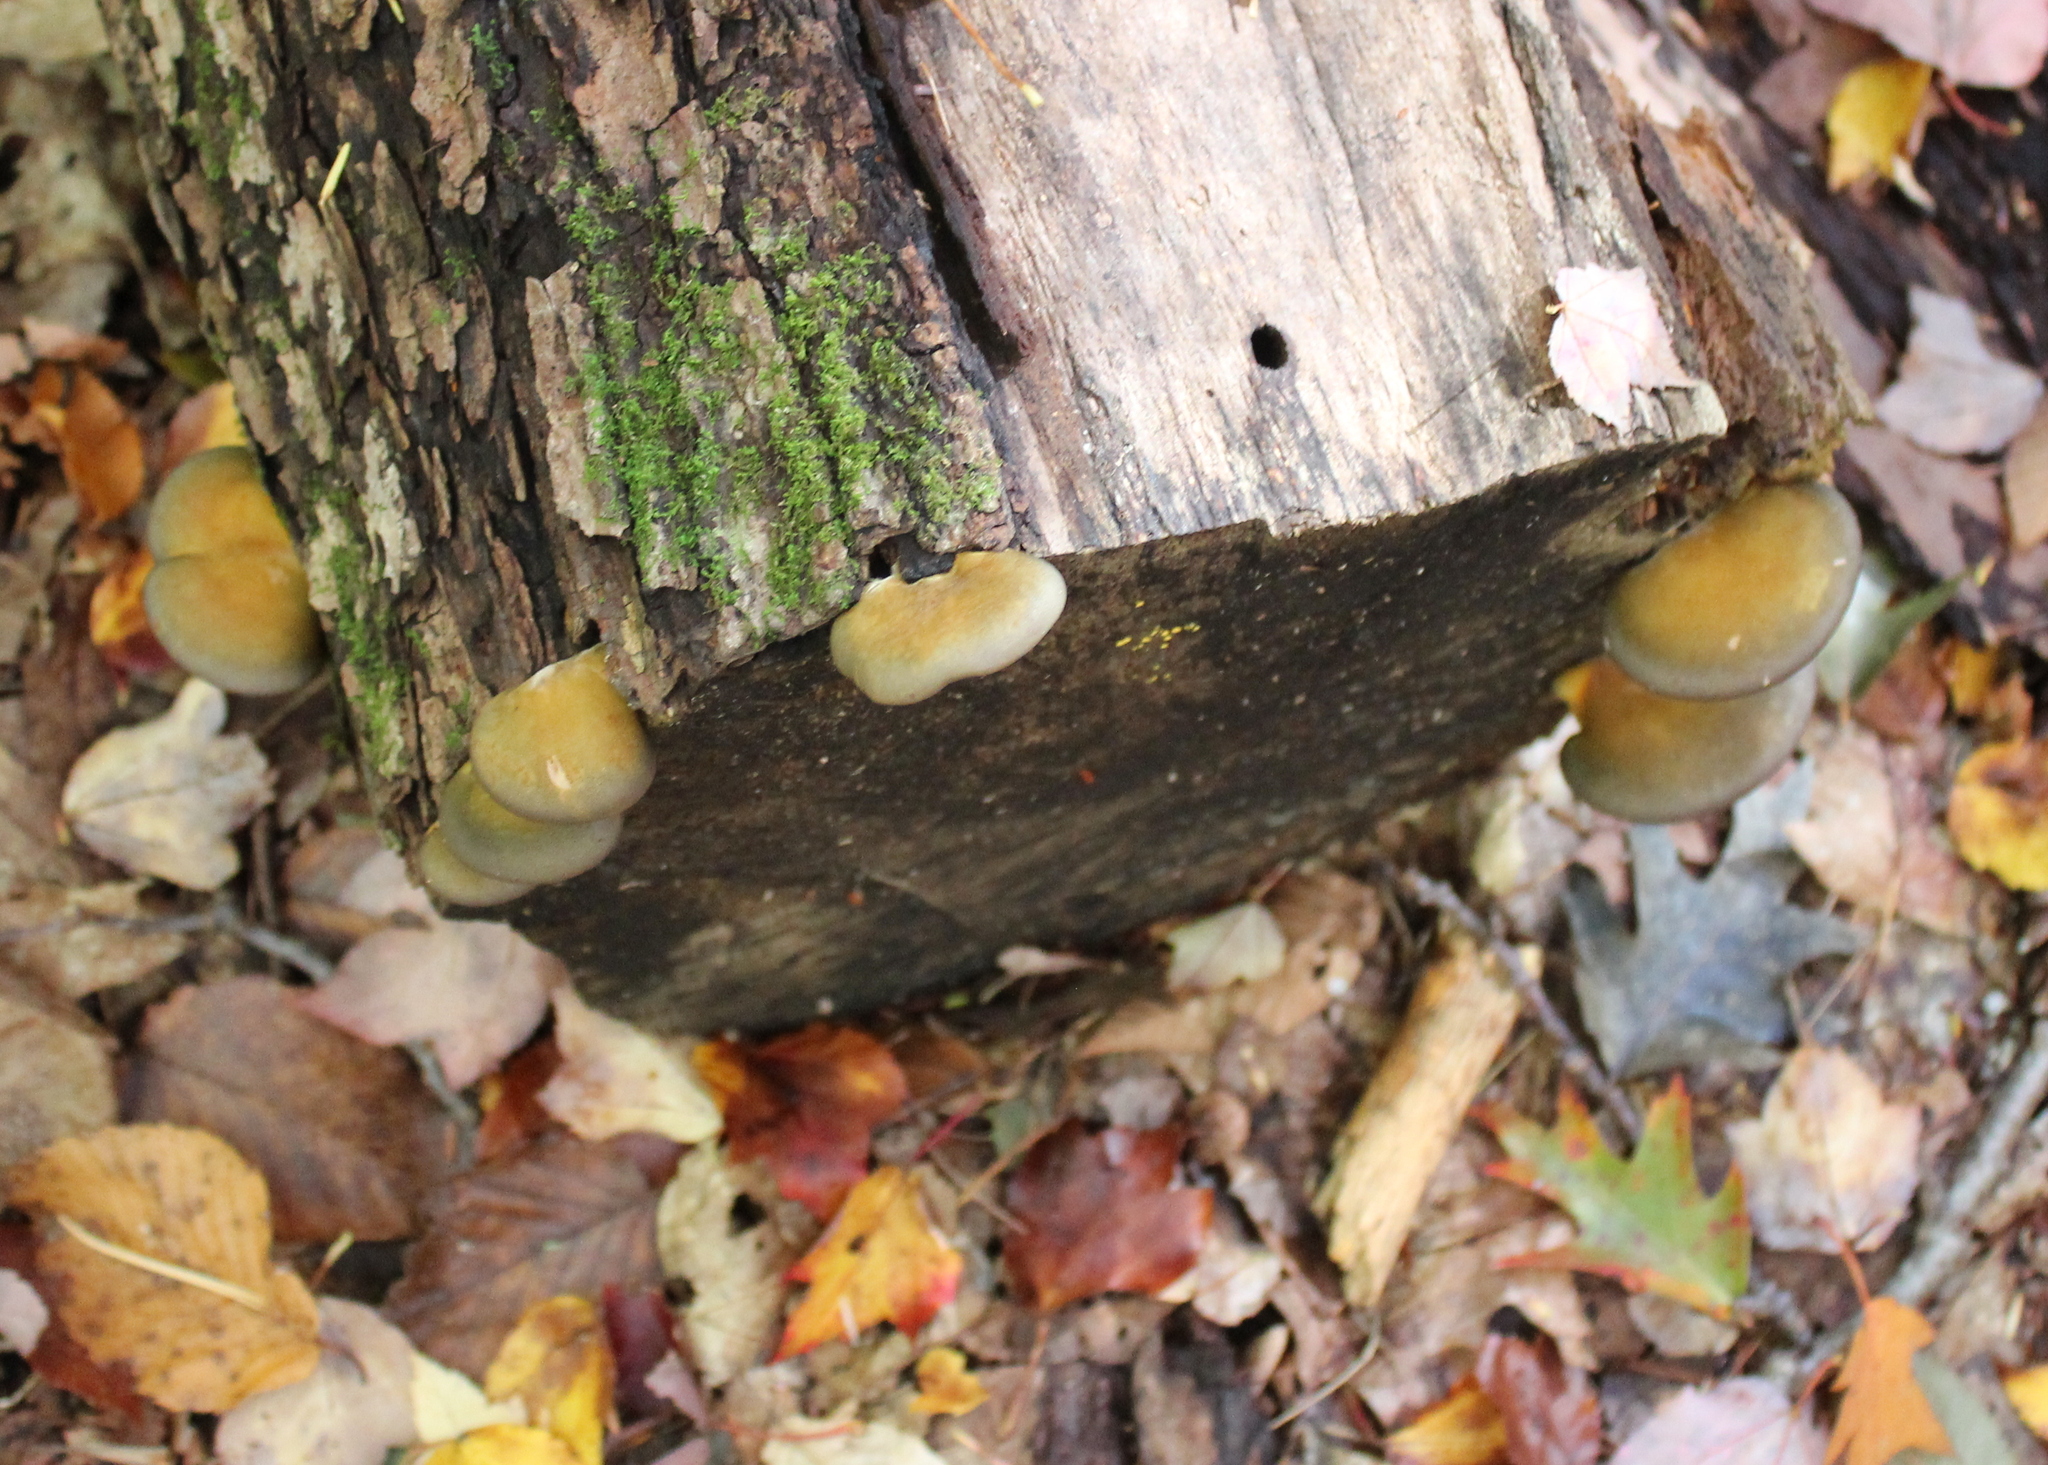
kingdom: Fungi
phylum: Basidiomycota
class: Agaricomycetes
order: Agaricales
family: Sarcomyxaceae
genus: Sarcomyxa
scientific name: Sarcomyxa serotina
